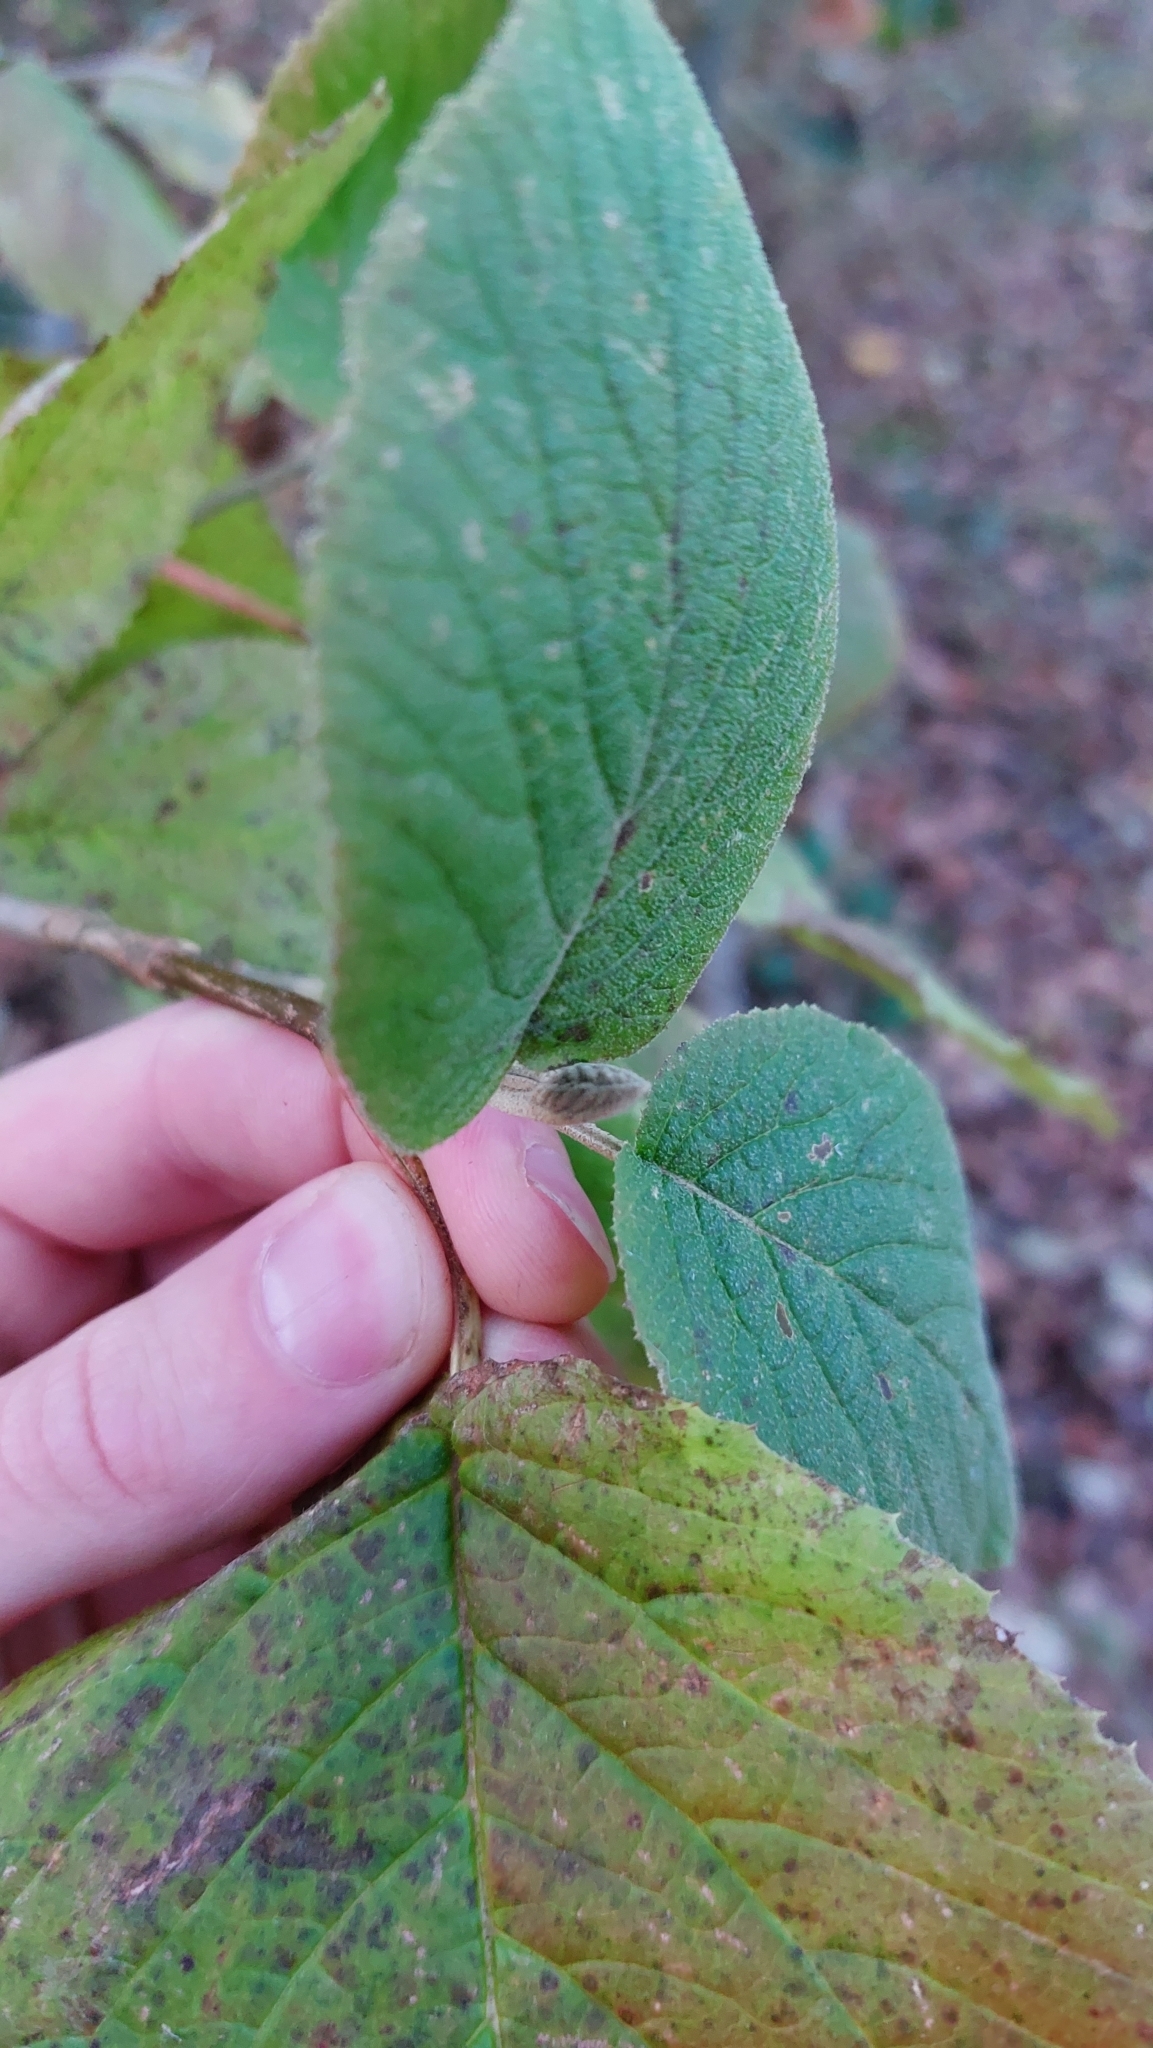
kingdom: Plantae
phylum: Tracheophyta
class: Magnoliopsida
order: Dipsacales
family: Viburnaceae
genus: Viburnum
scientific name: Viburnum lantana
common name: Wayfaring tree
